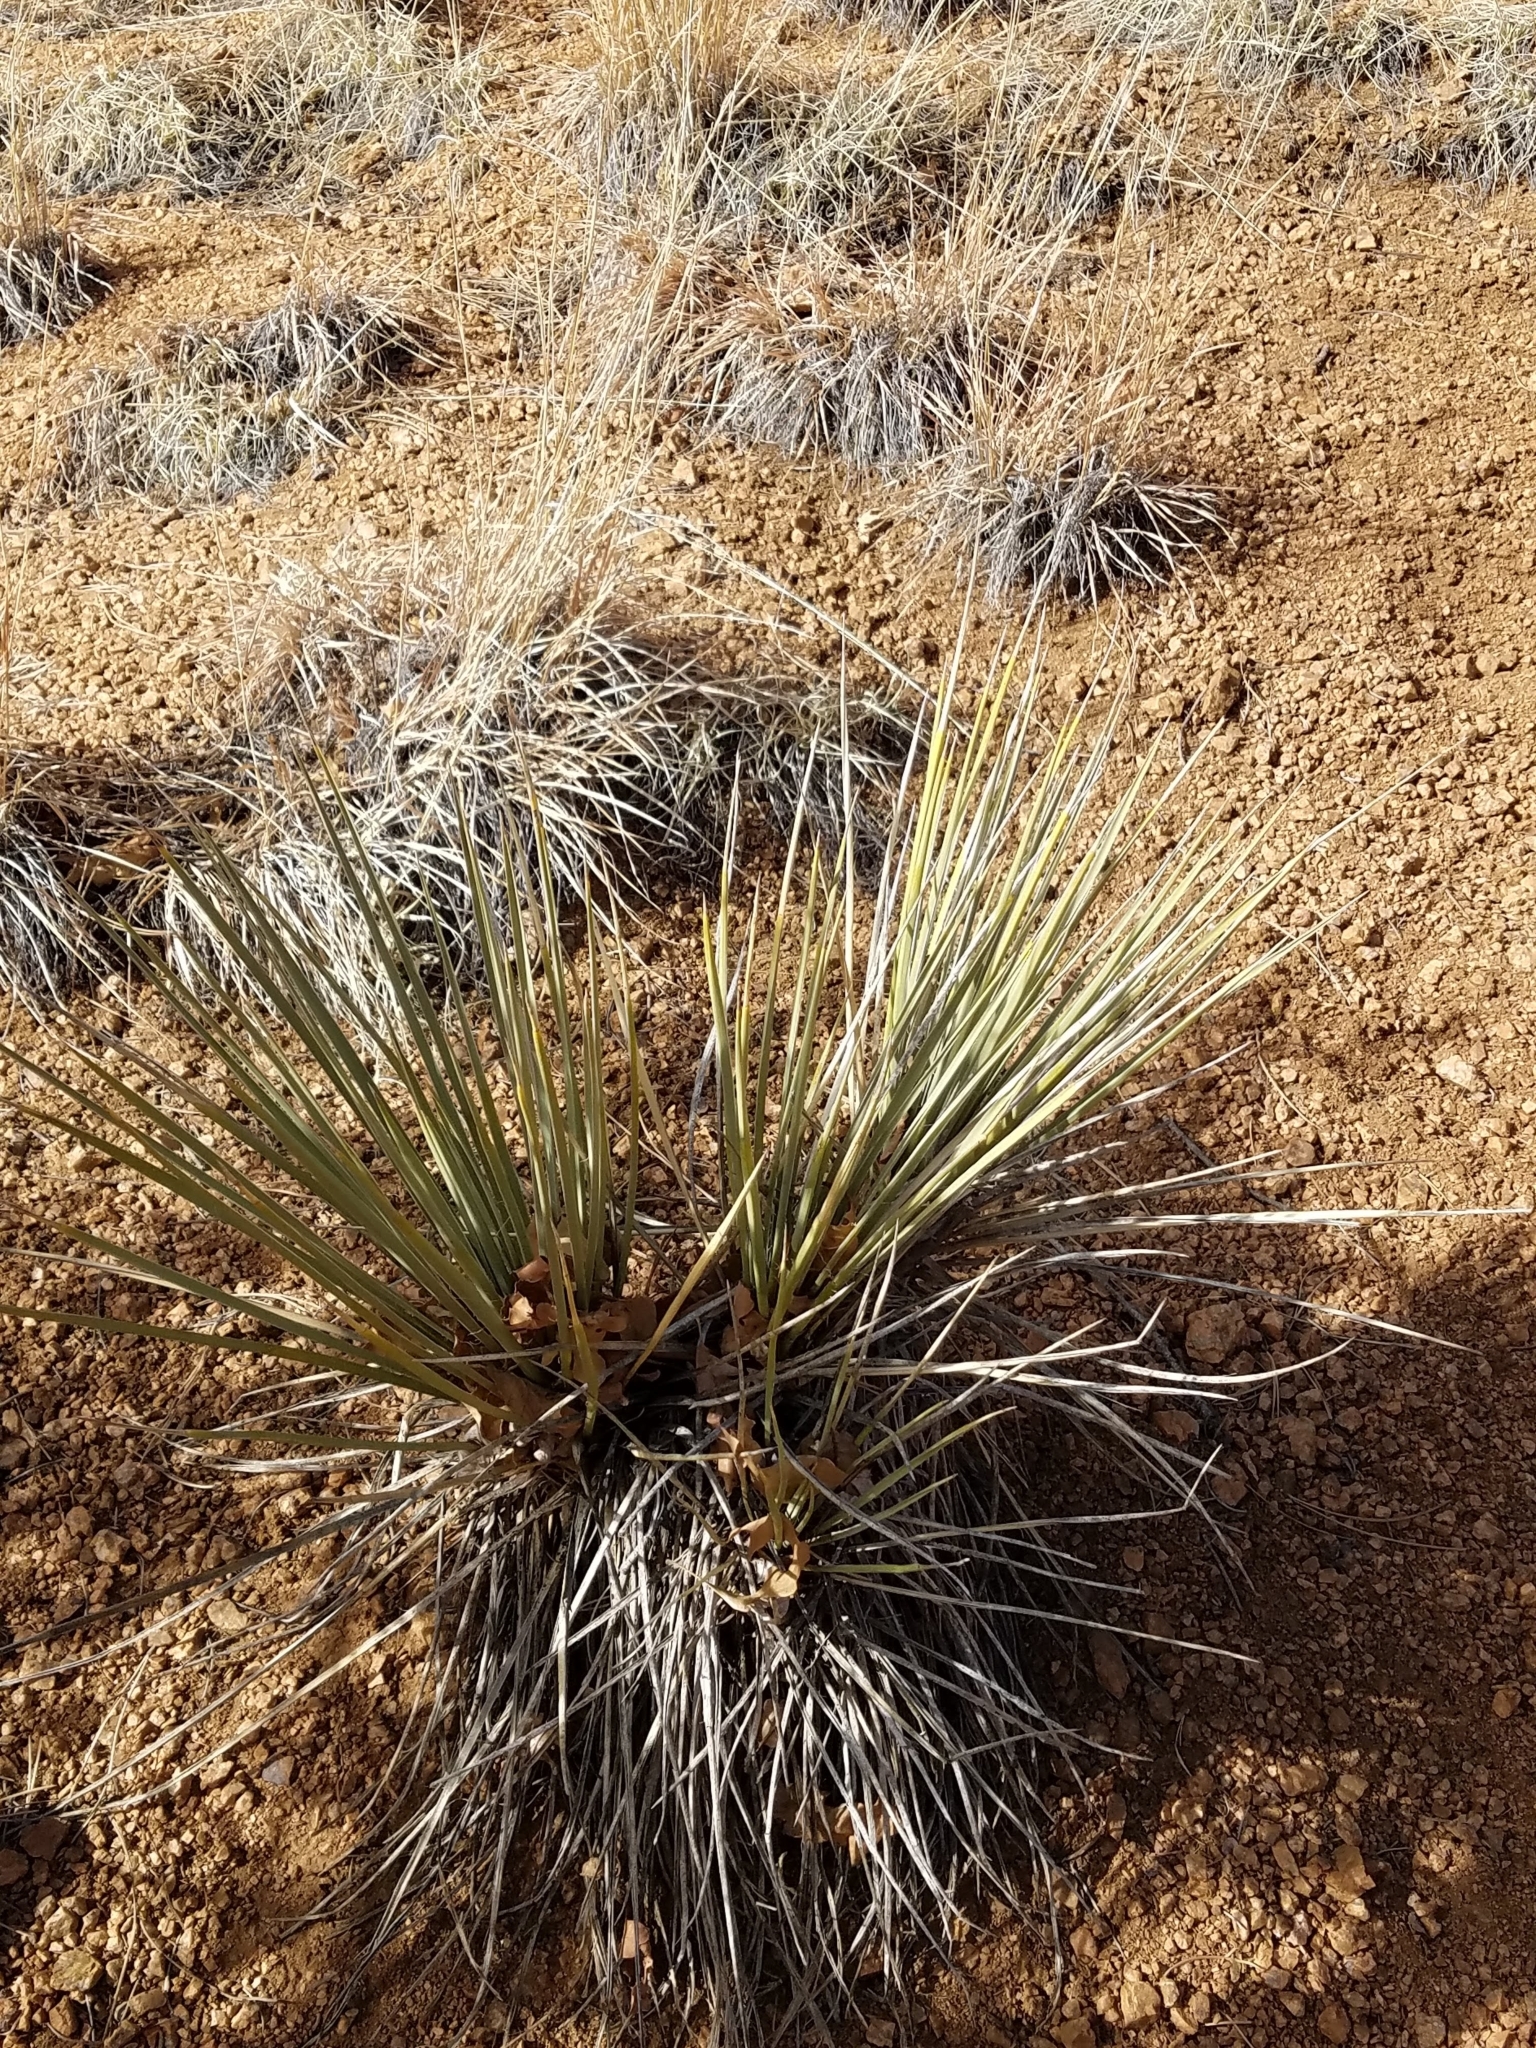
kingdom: Plantae
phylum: Tracheophyta
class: Liliopsida
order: Asparagales
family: Asparagaceae
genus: Yucca
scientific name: Yucca glauca
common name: Great plains yucca
